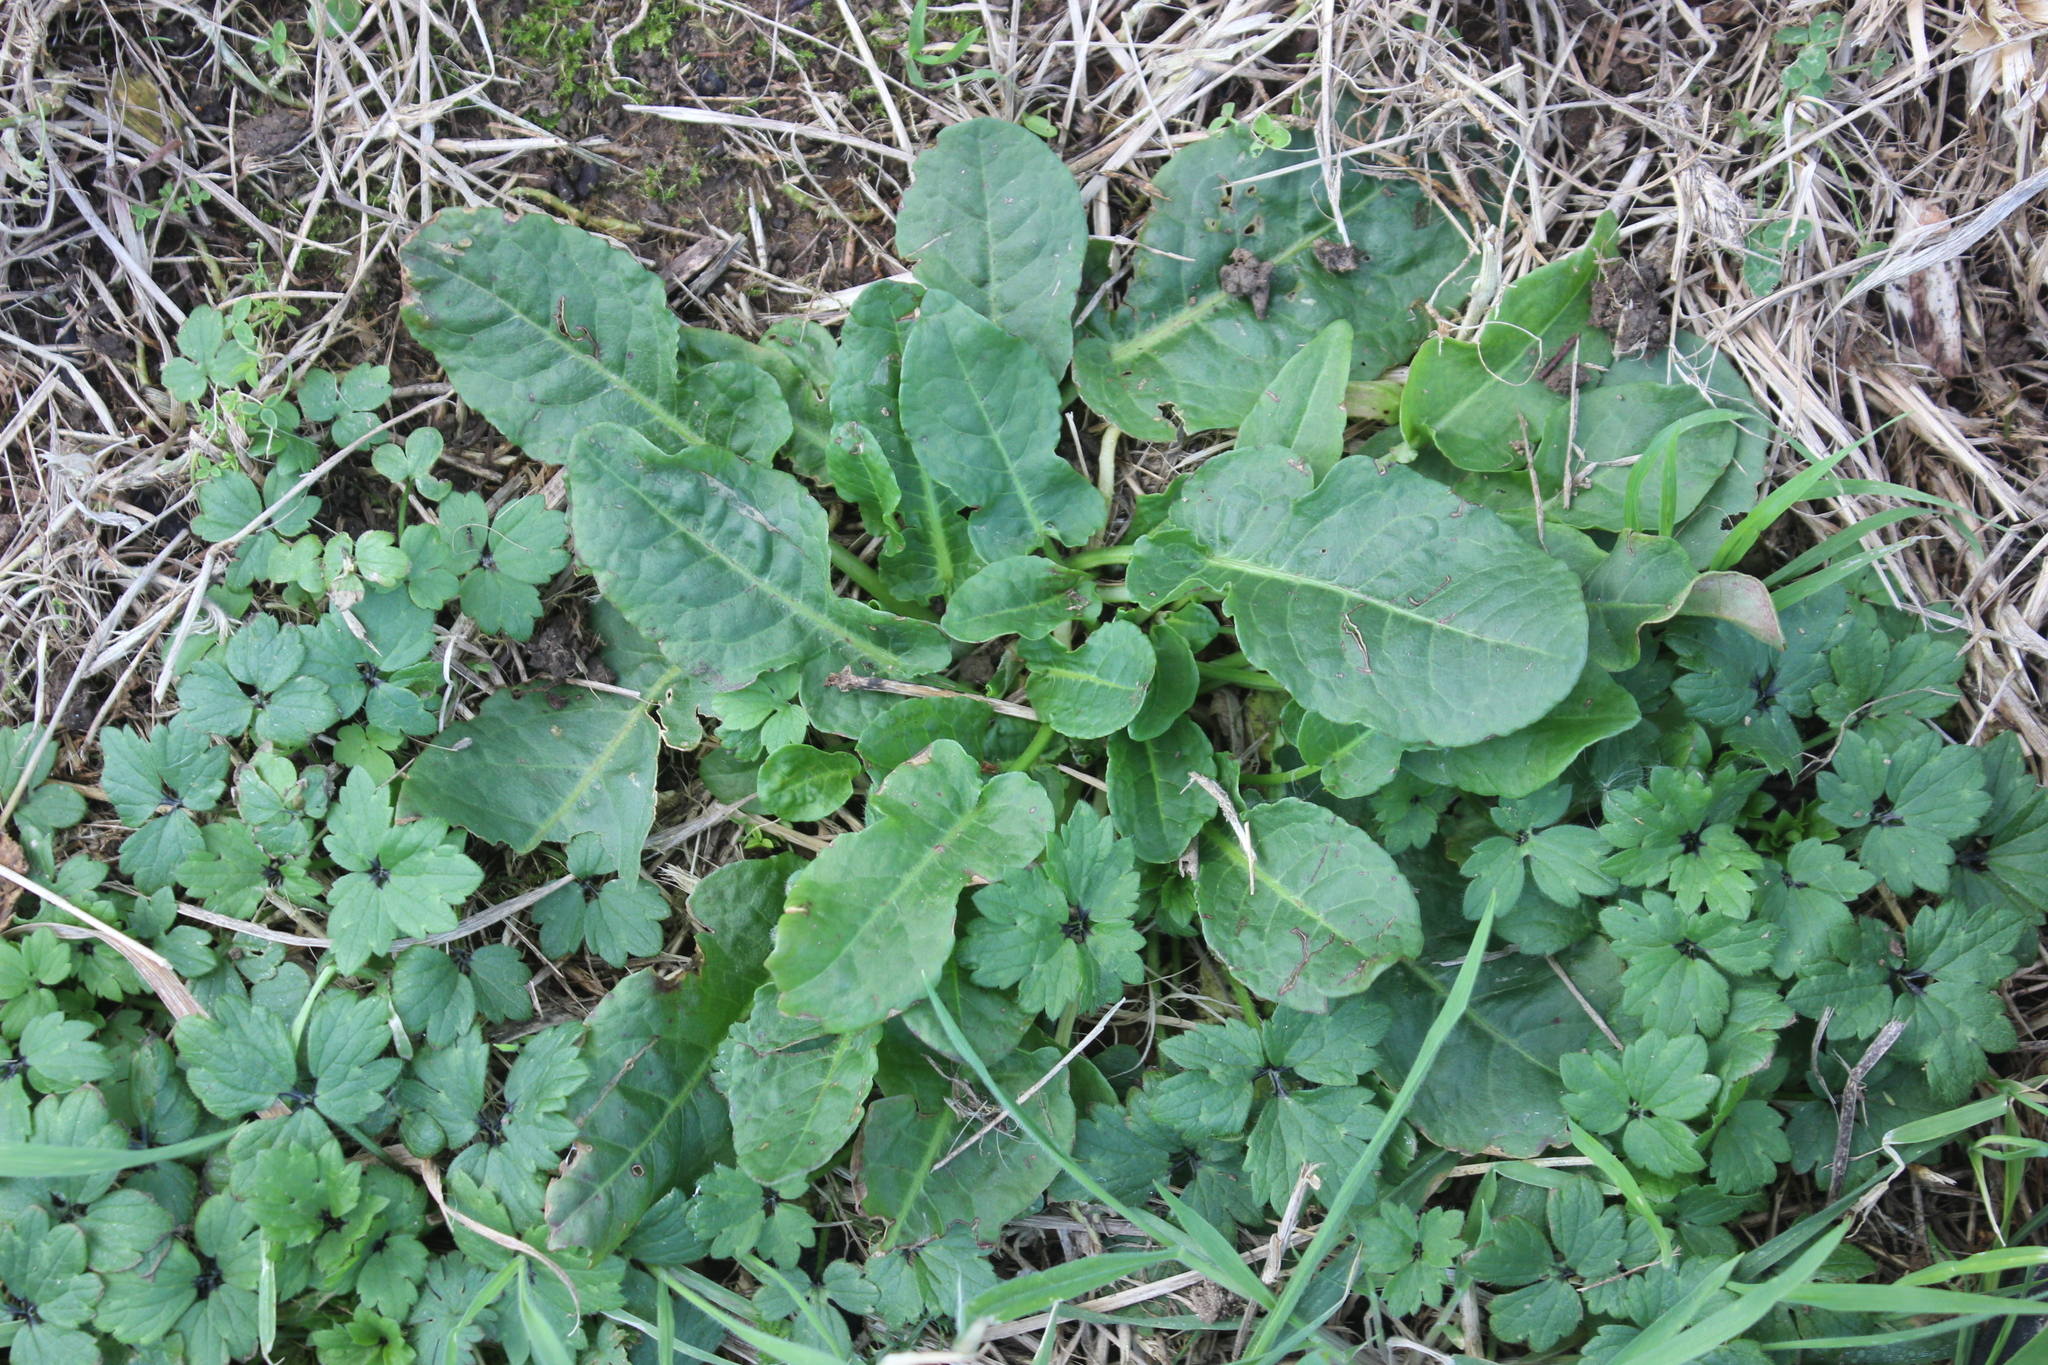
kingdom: Plantae
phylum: Tracheophyta
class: Magnoliopsida
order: Caryophyllales
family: Polygonaceae
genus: Rumex
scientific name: Rumex pulcher
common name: Fiddle dock
